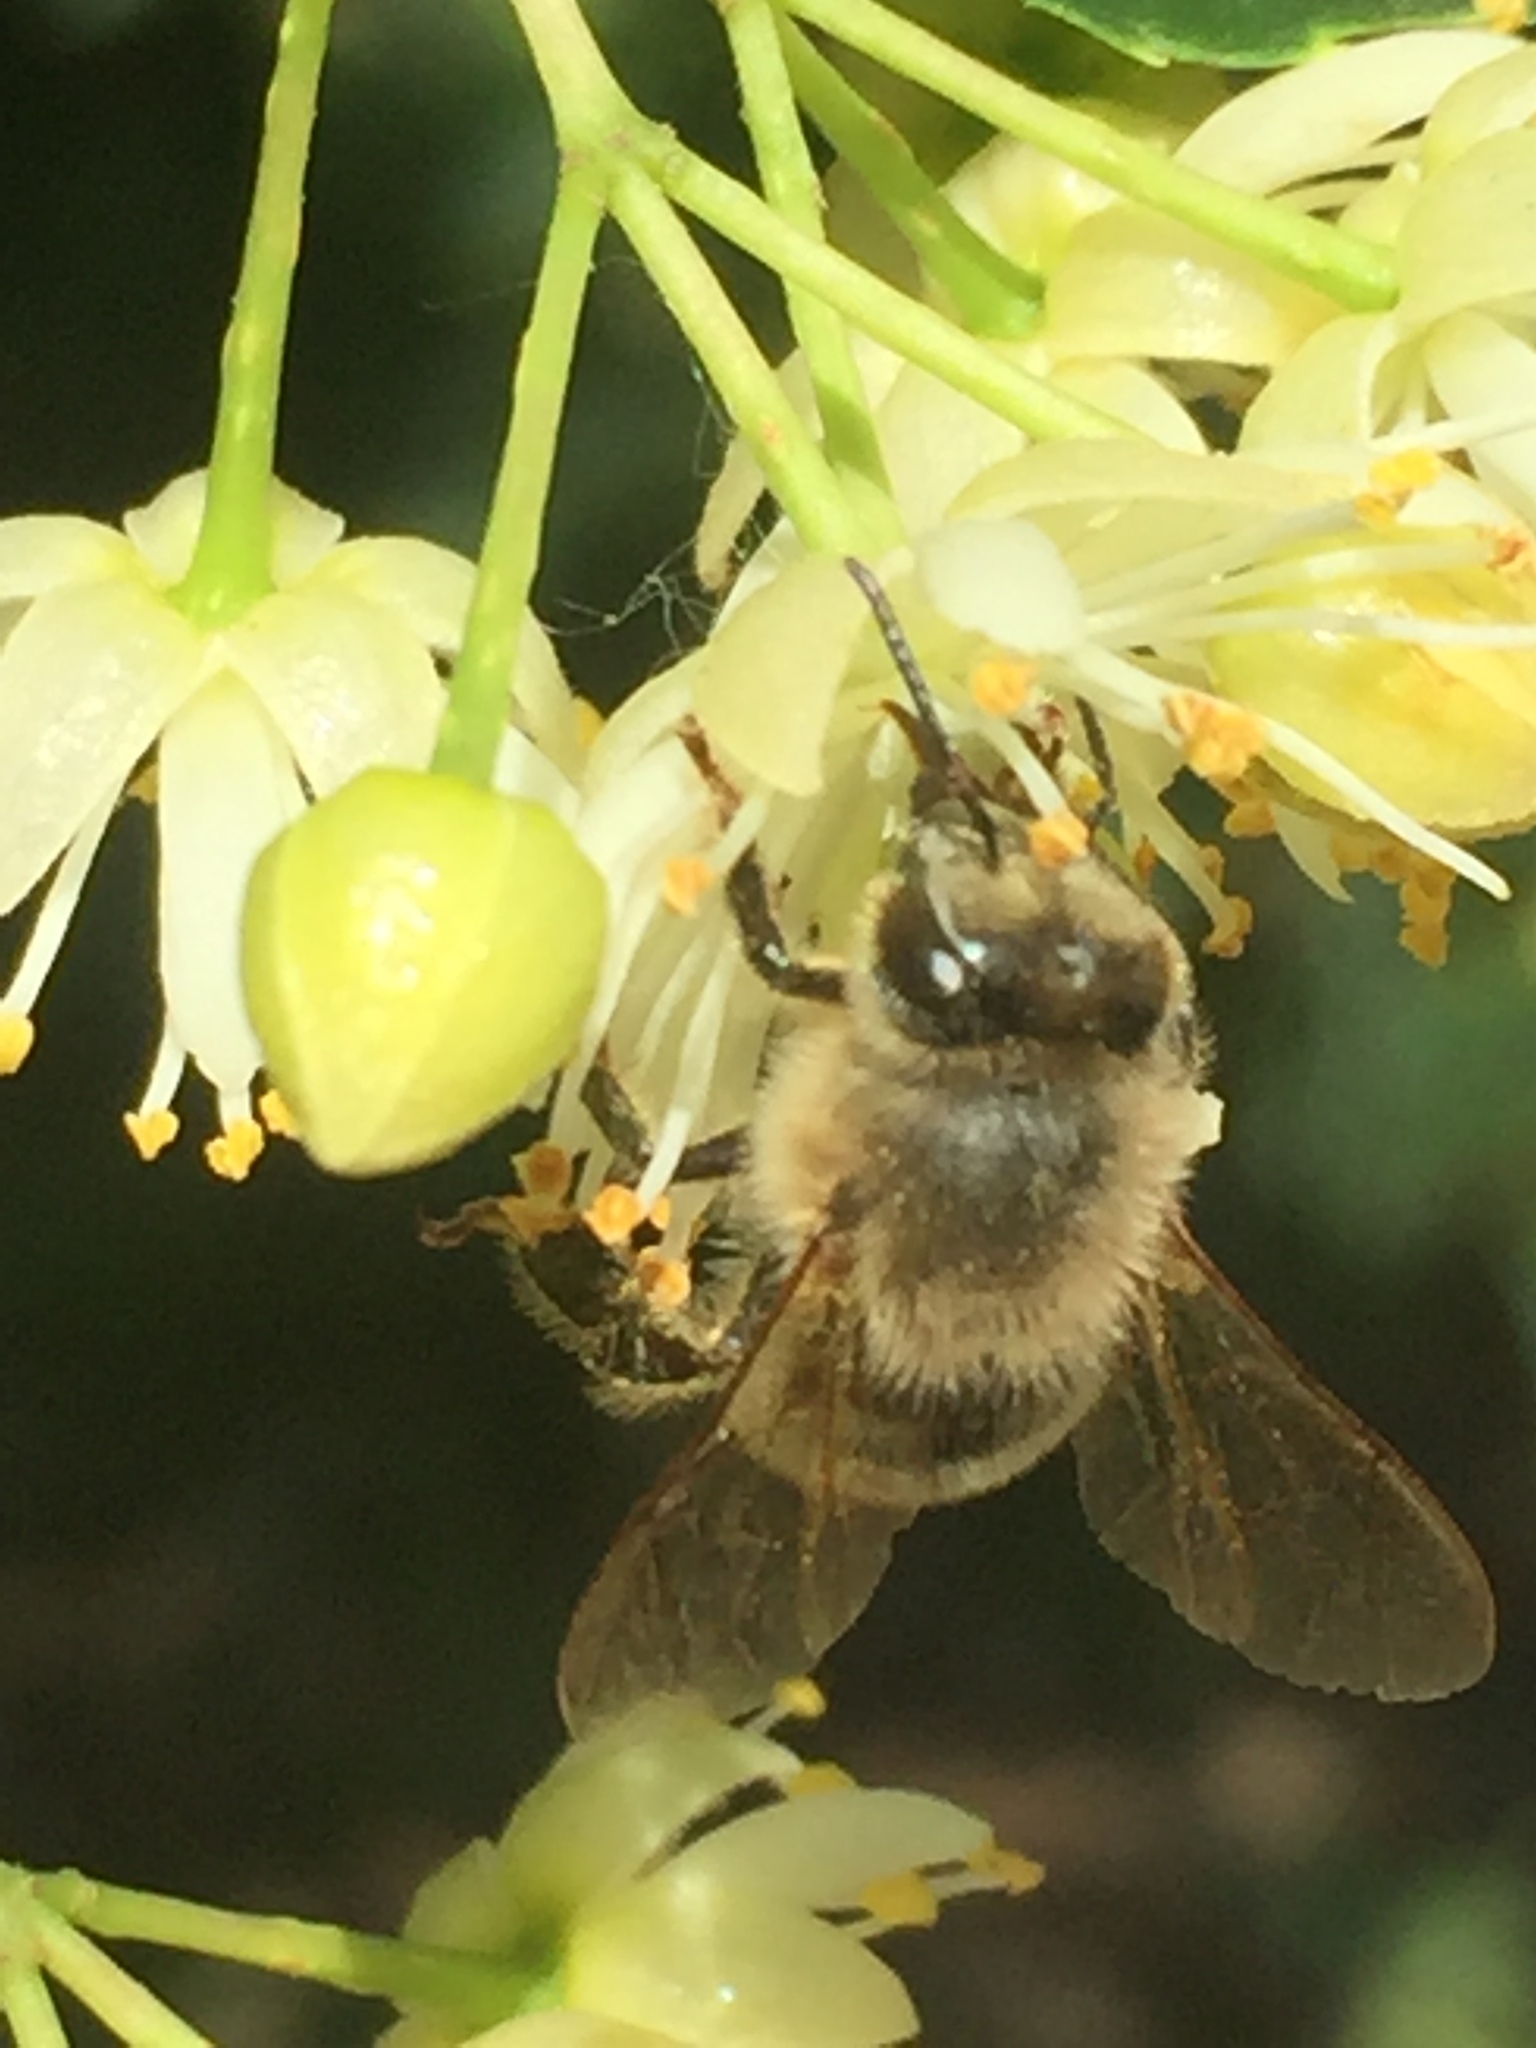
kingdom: Animalia
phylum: Arthropoda
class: Insecta
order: Hymenoptera
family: Apidae
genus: Apis
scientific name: Apis mellifera
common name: Honey bee
